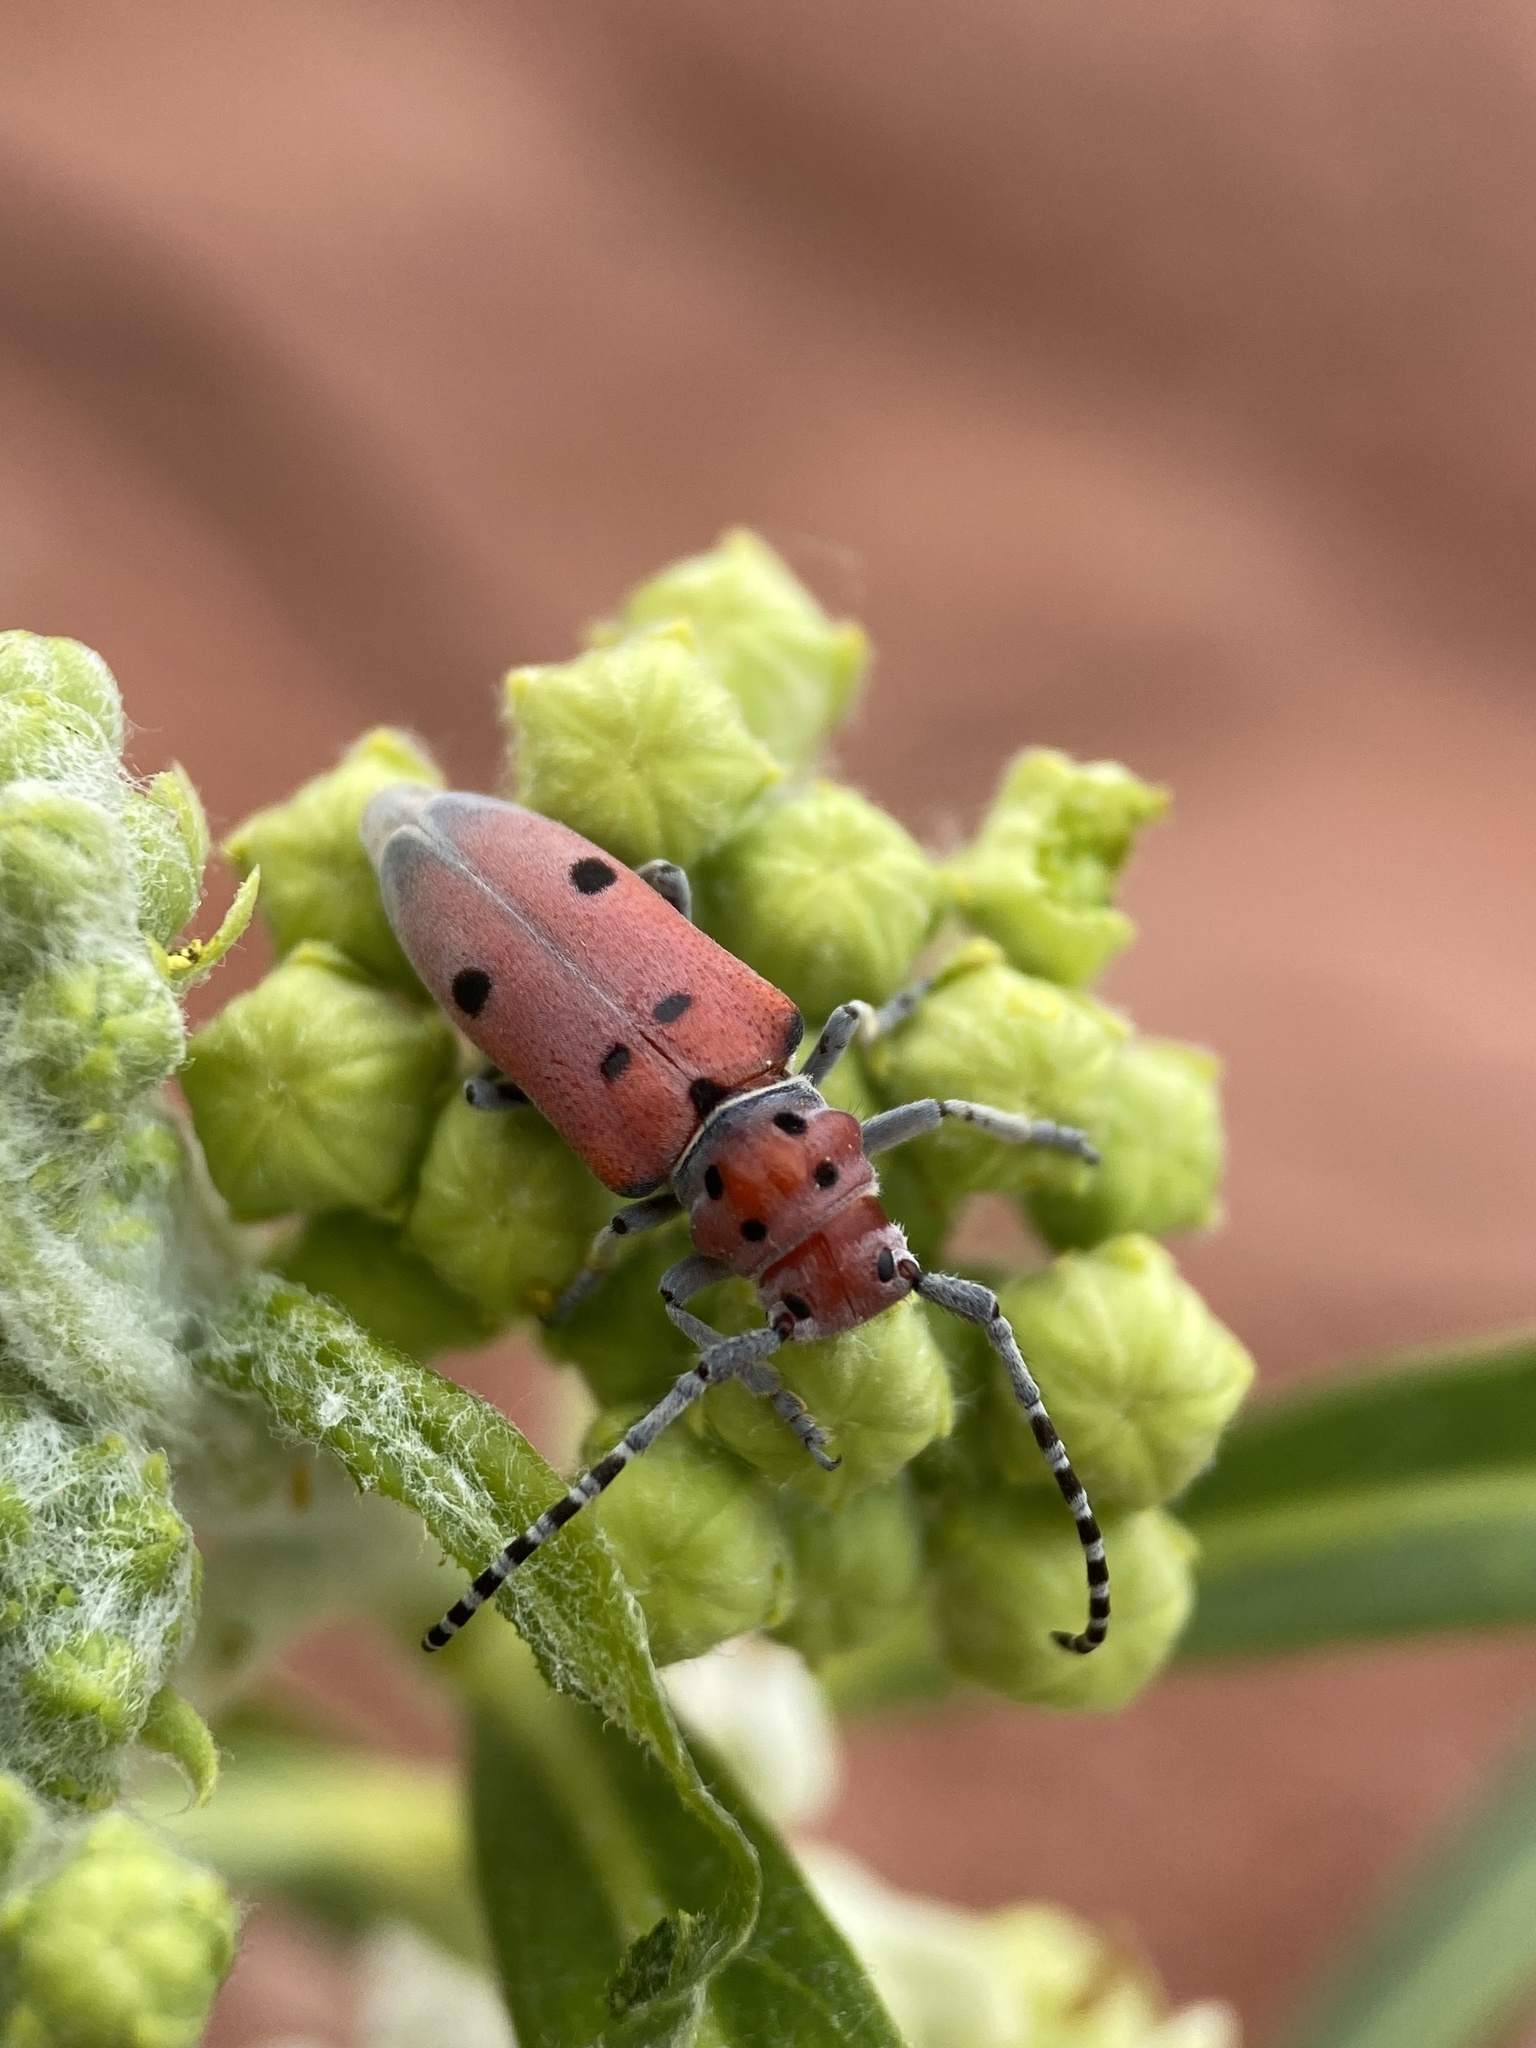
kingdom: Animalia
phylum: Arthropoda
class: Insecta
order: Coleoptera
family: Cerambycidae
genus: Tetraopes
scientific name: Tetraopes annulatus
